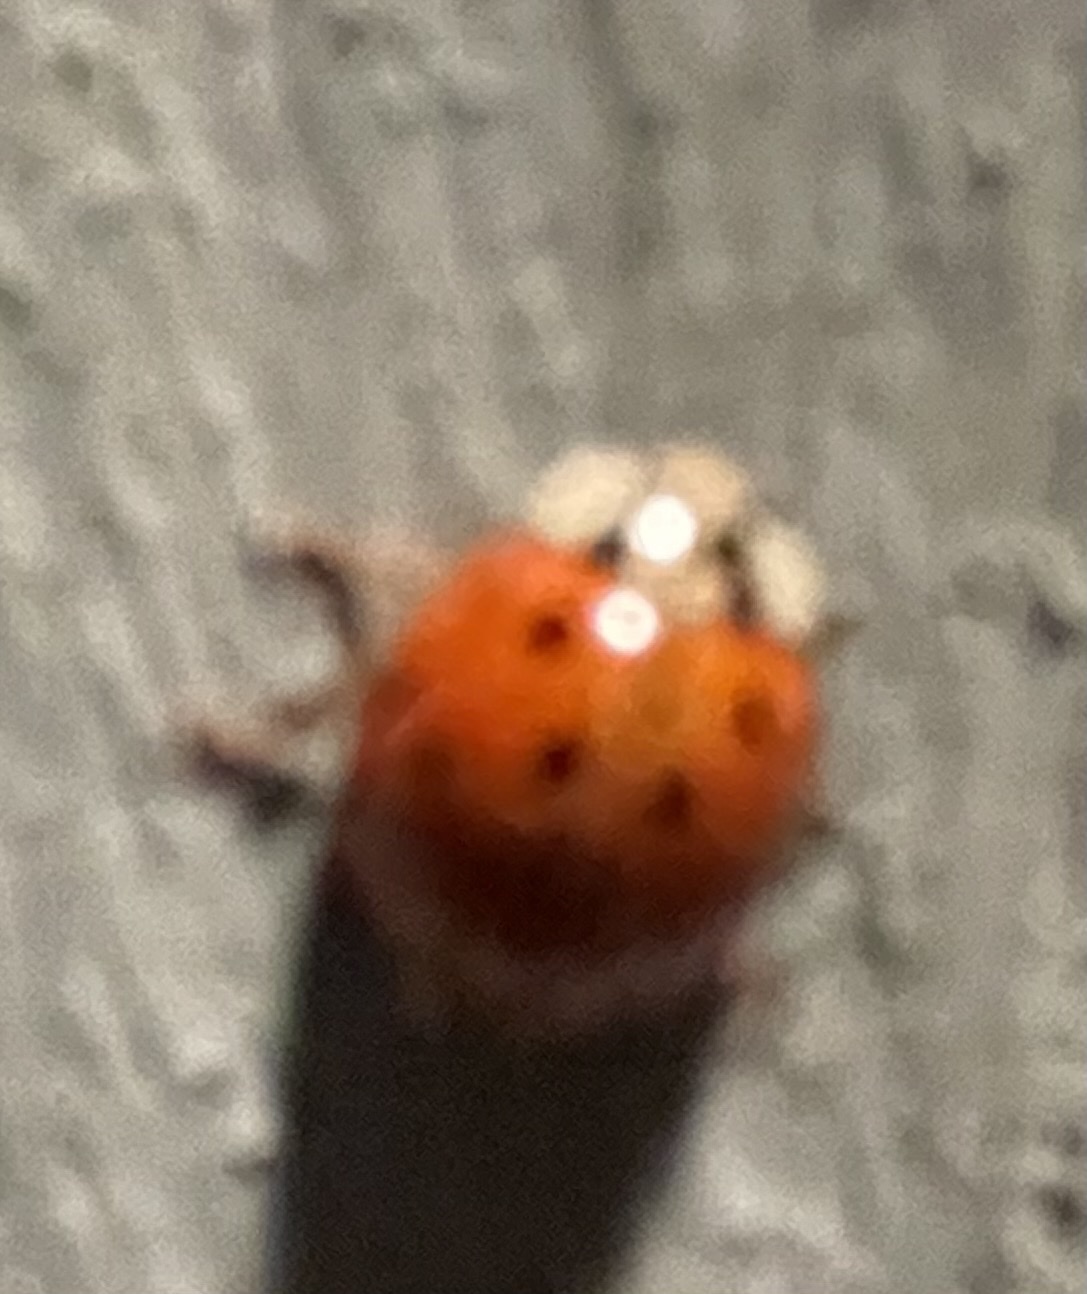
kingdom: Animalia
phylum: Arthropoda
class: Insecta
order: Coleoptera
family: Coccinellidae
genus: Harmonia
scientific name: Harmonia axyridis
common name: Harlequin ladybird
